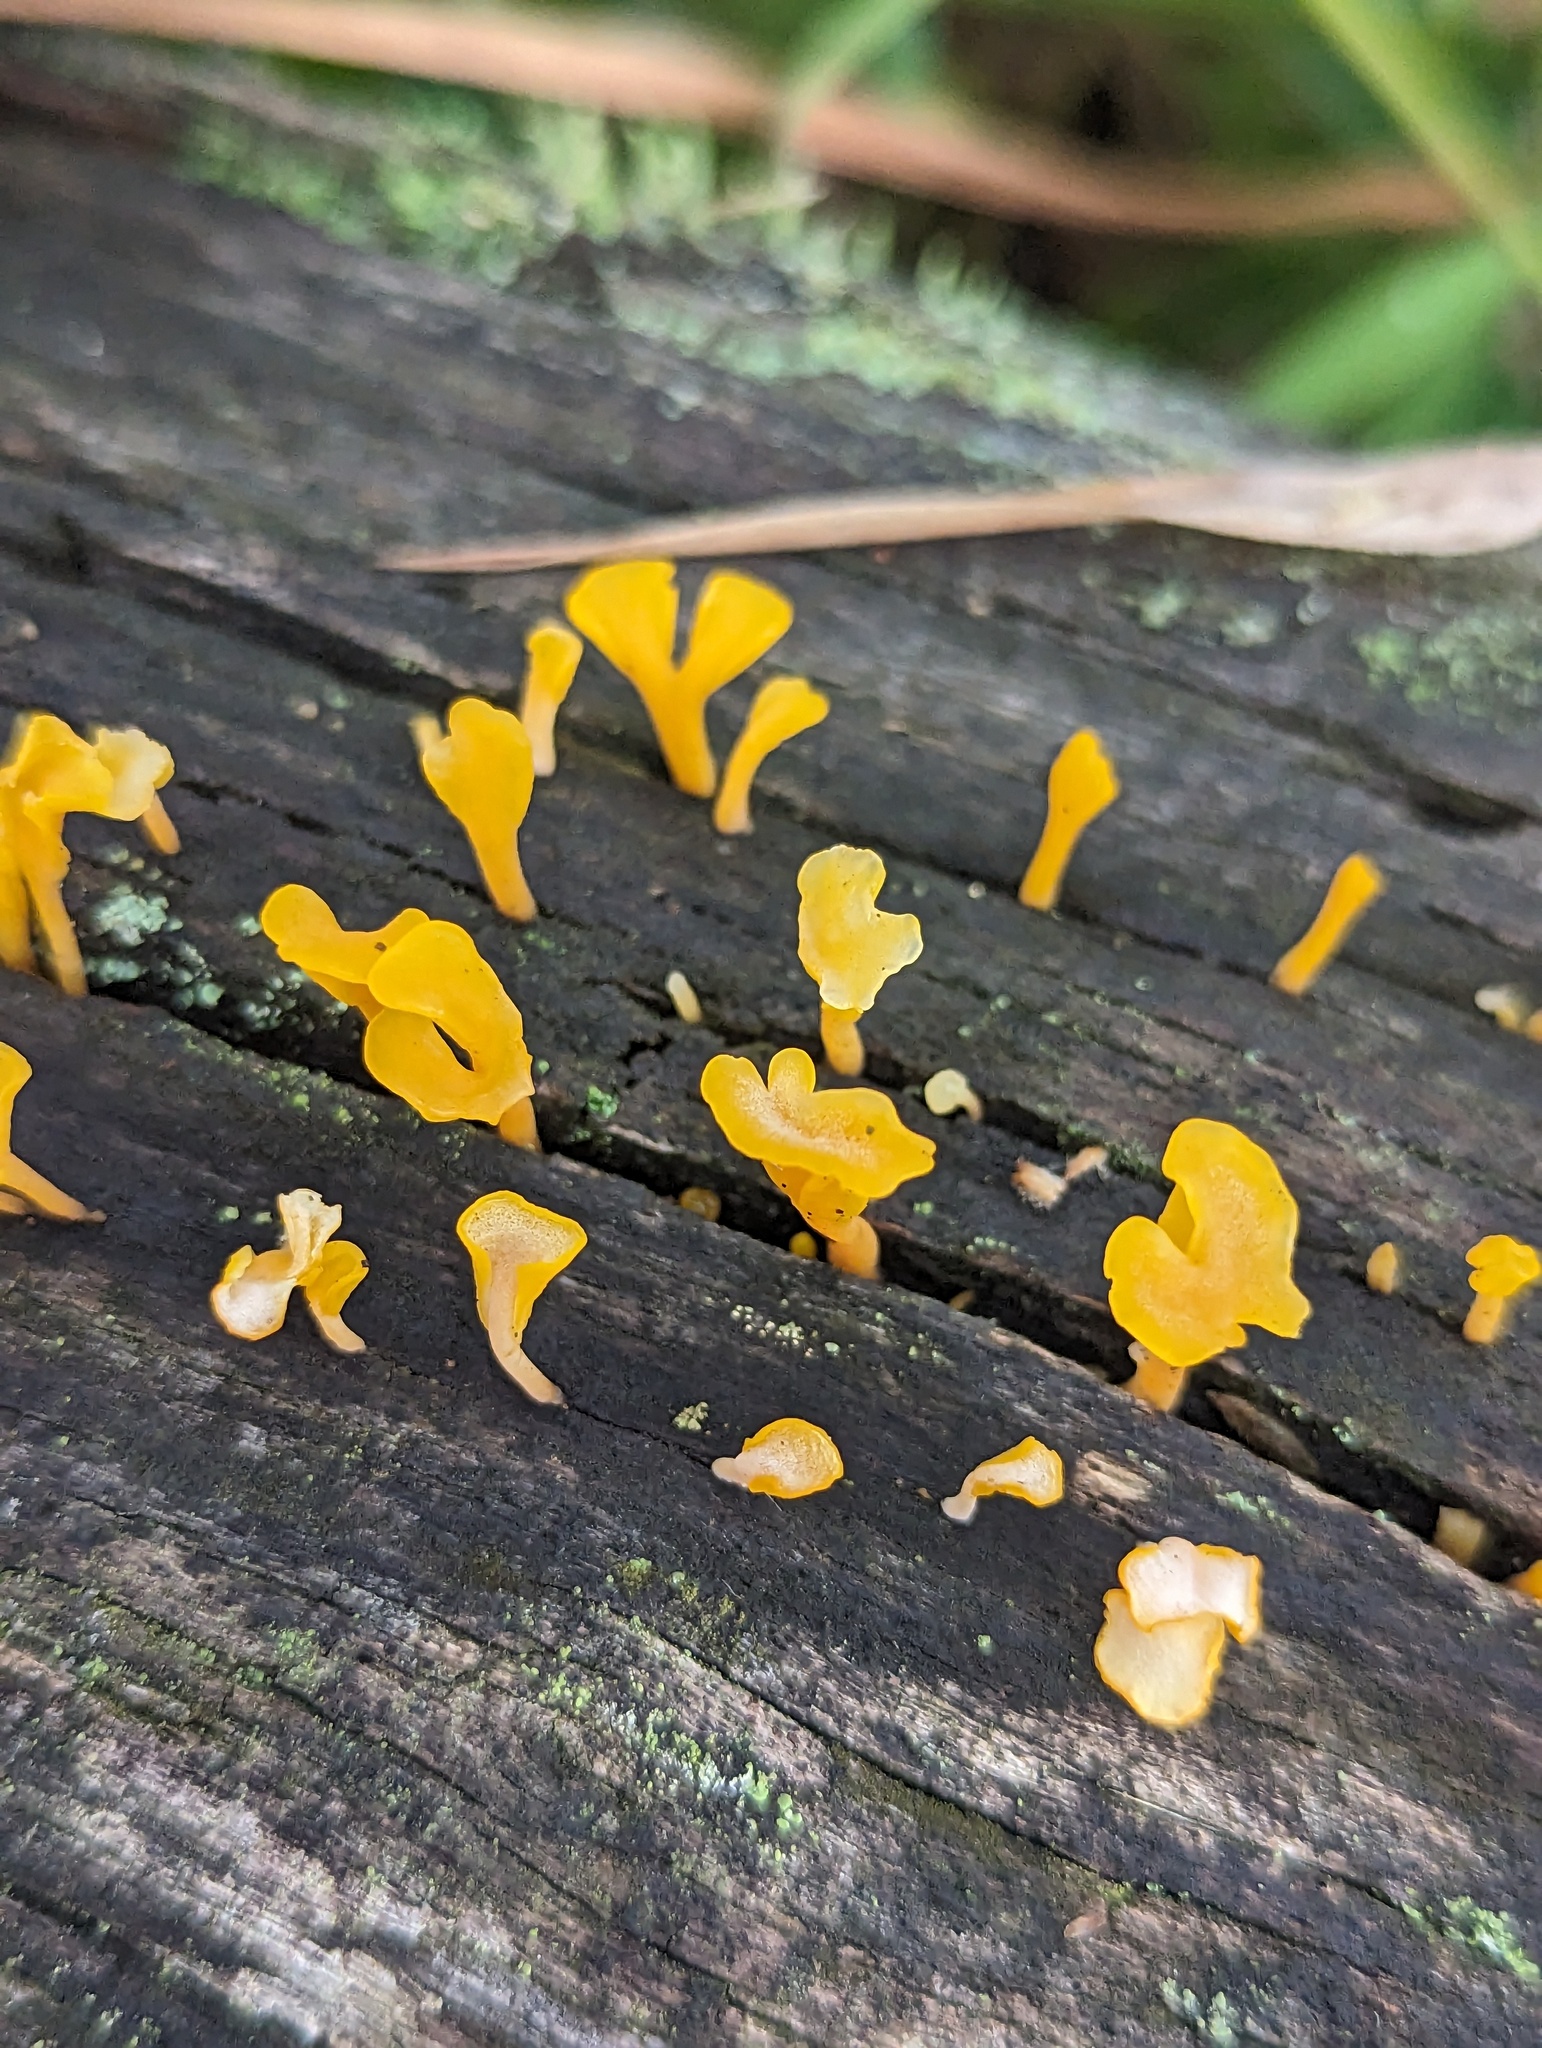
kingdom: Fungi
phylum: Basidiomycota
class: Dacrymycetes
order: Dacrymycetales
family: Dacrymycetaceae
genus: Dacrymyces
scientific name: Dacrymyces spathularius
